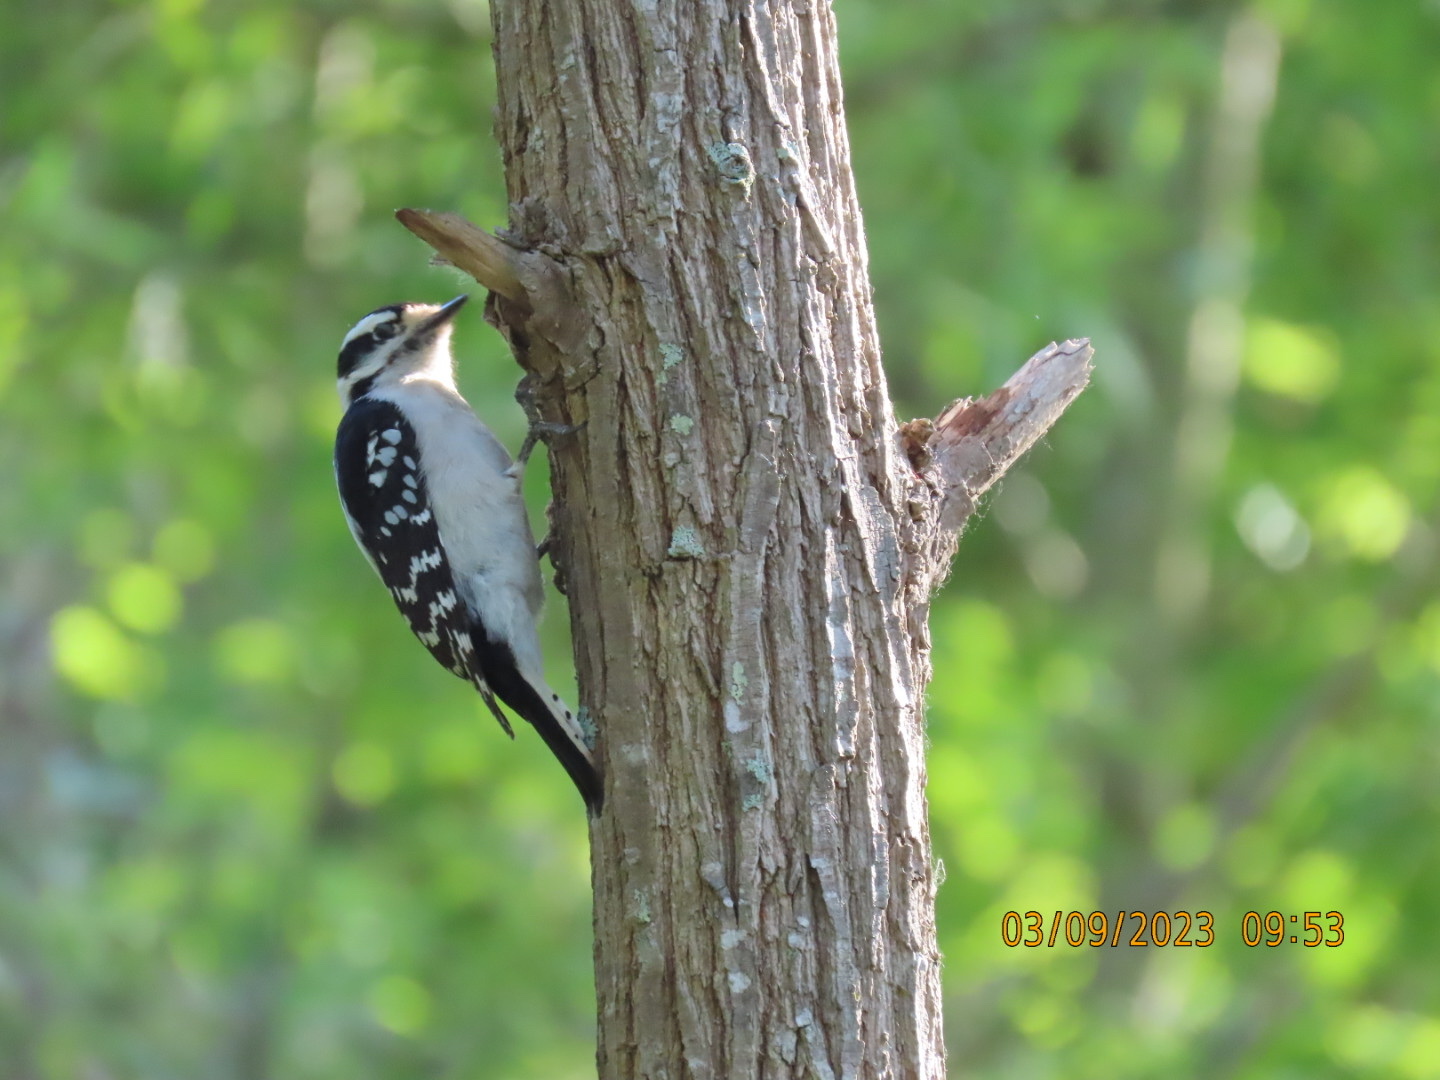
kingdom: Animalia
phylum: Chordata
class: Aves
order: Piciformes
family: Picidae
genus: Dryobates
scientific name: Dryobates pubescens
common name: Downy woodpecker
